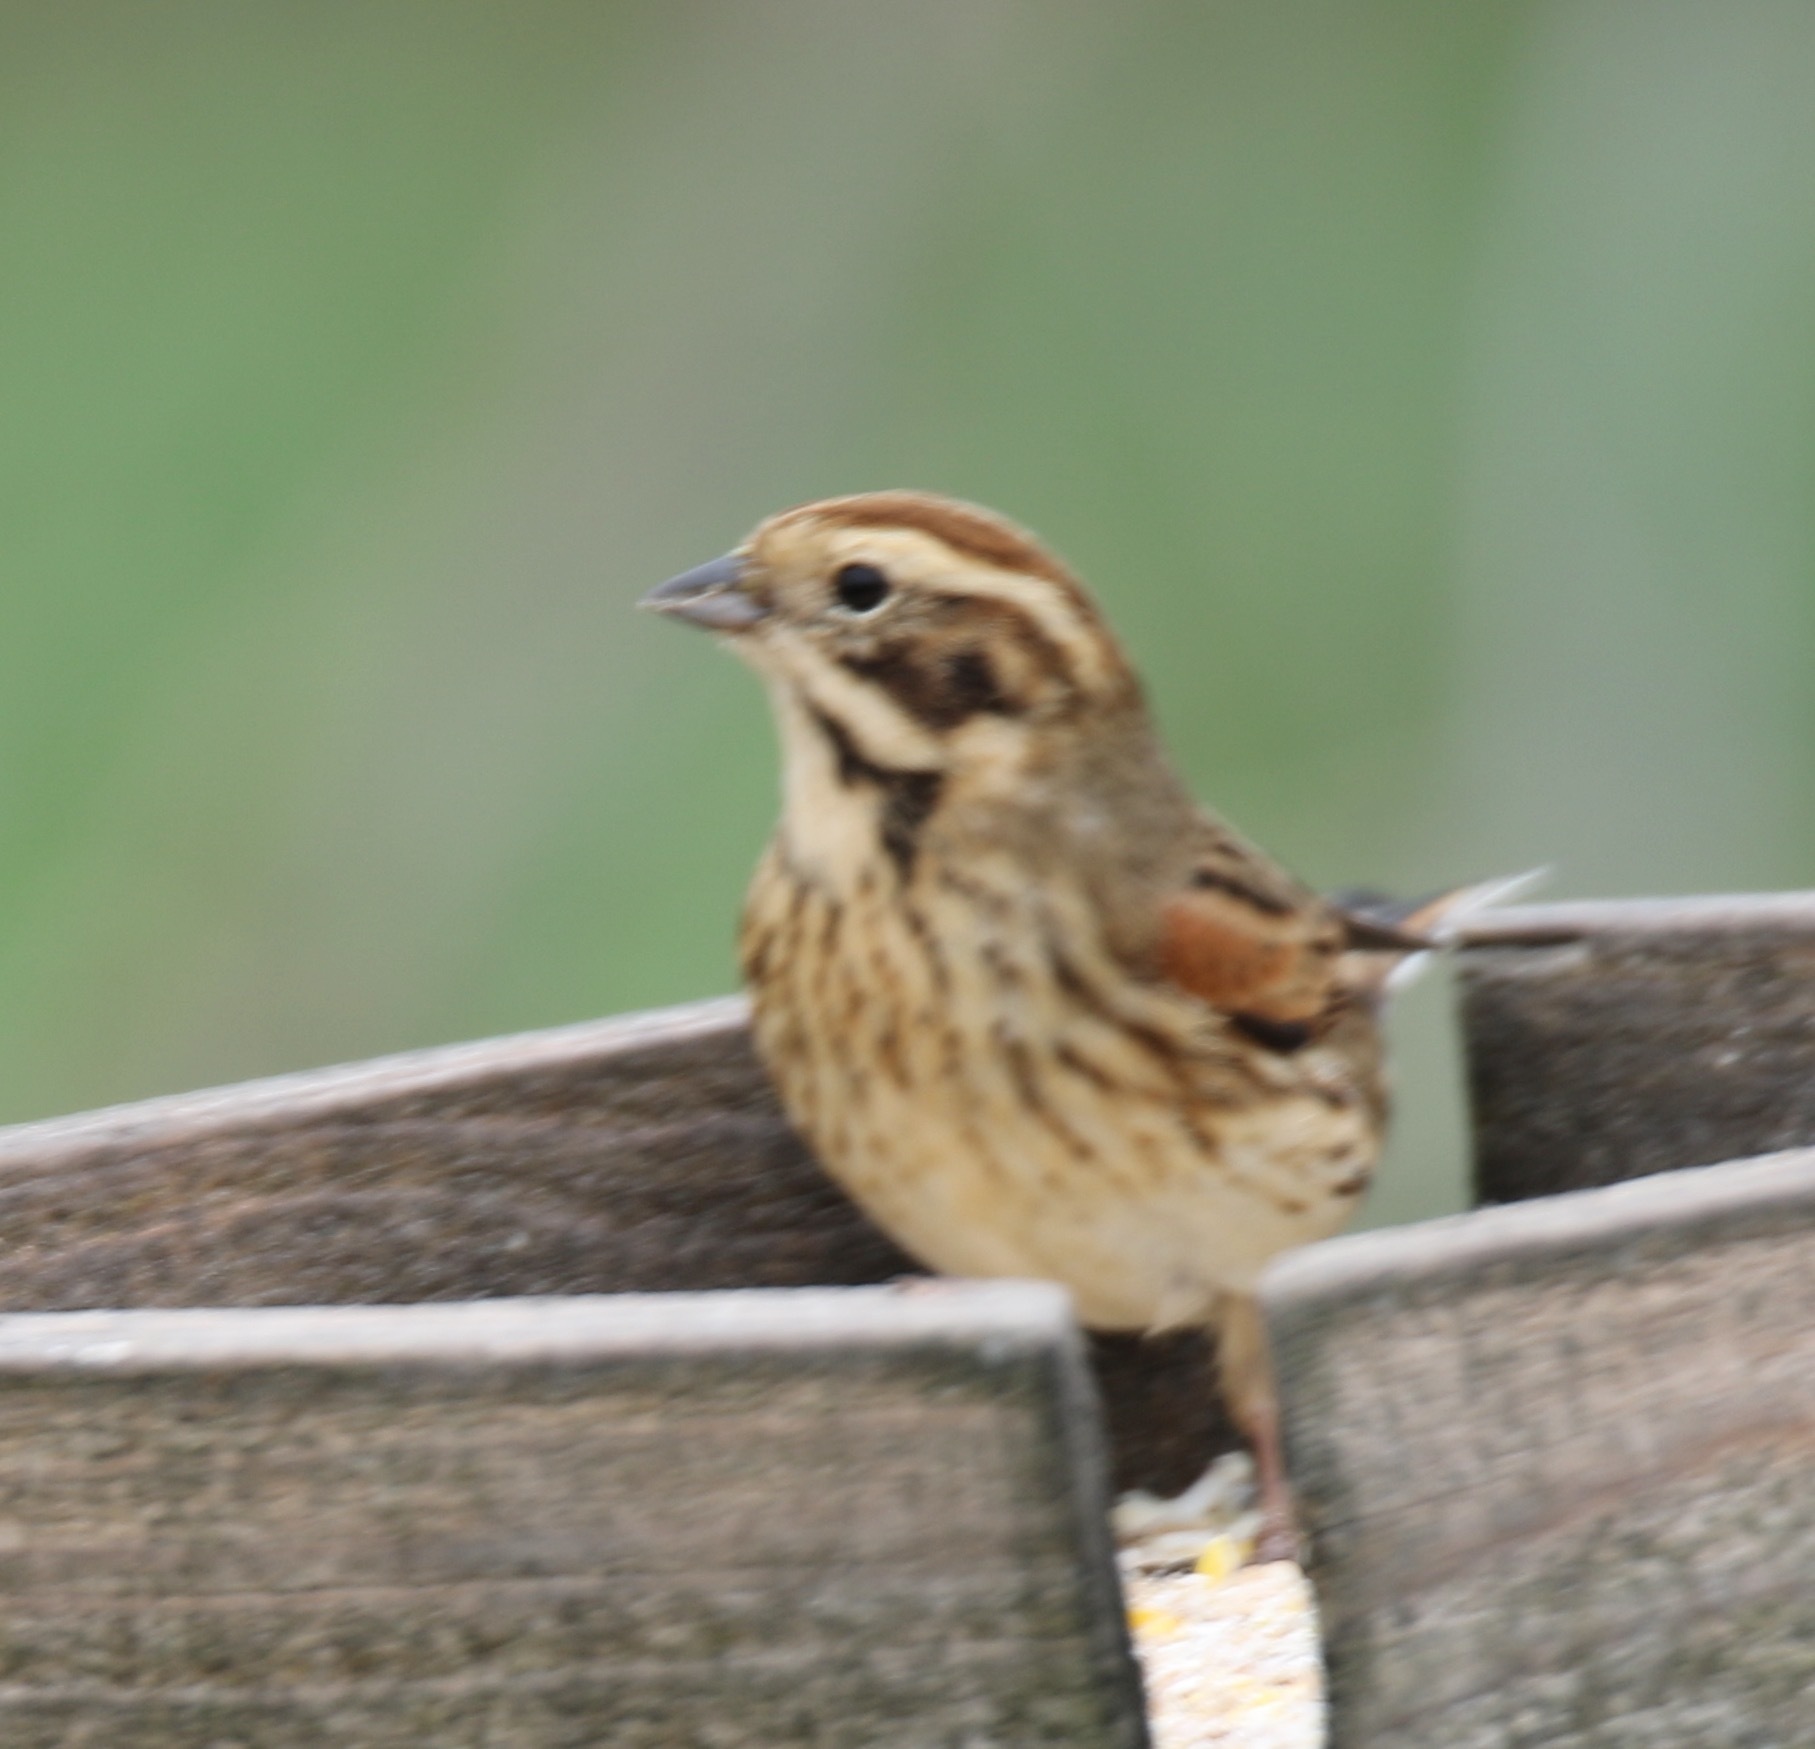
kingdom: Animalia
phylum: Chordata
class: Aves
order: Passeriformes
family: Emberizidae
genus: Emberiza
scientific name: Emberiza schoeniclus
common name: Reed bunting
